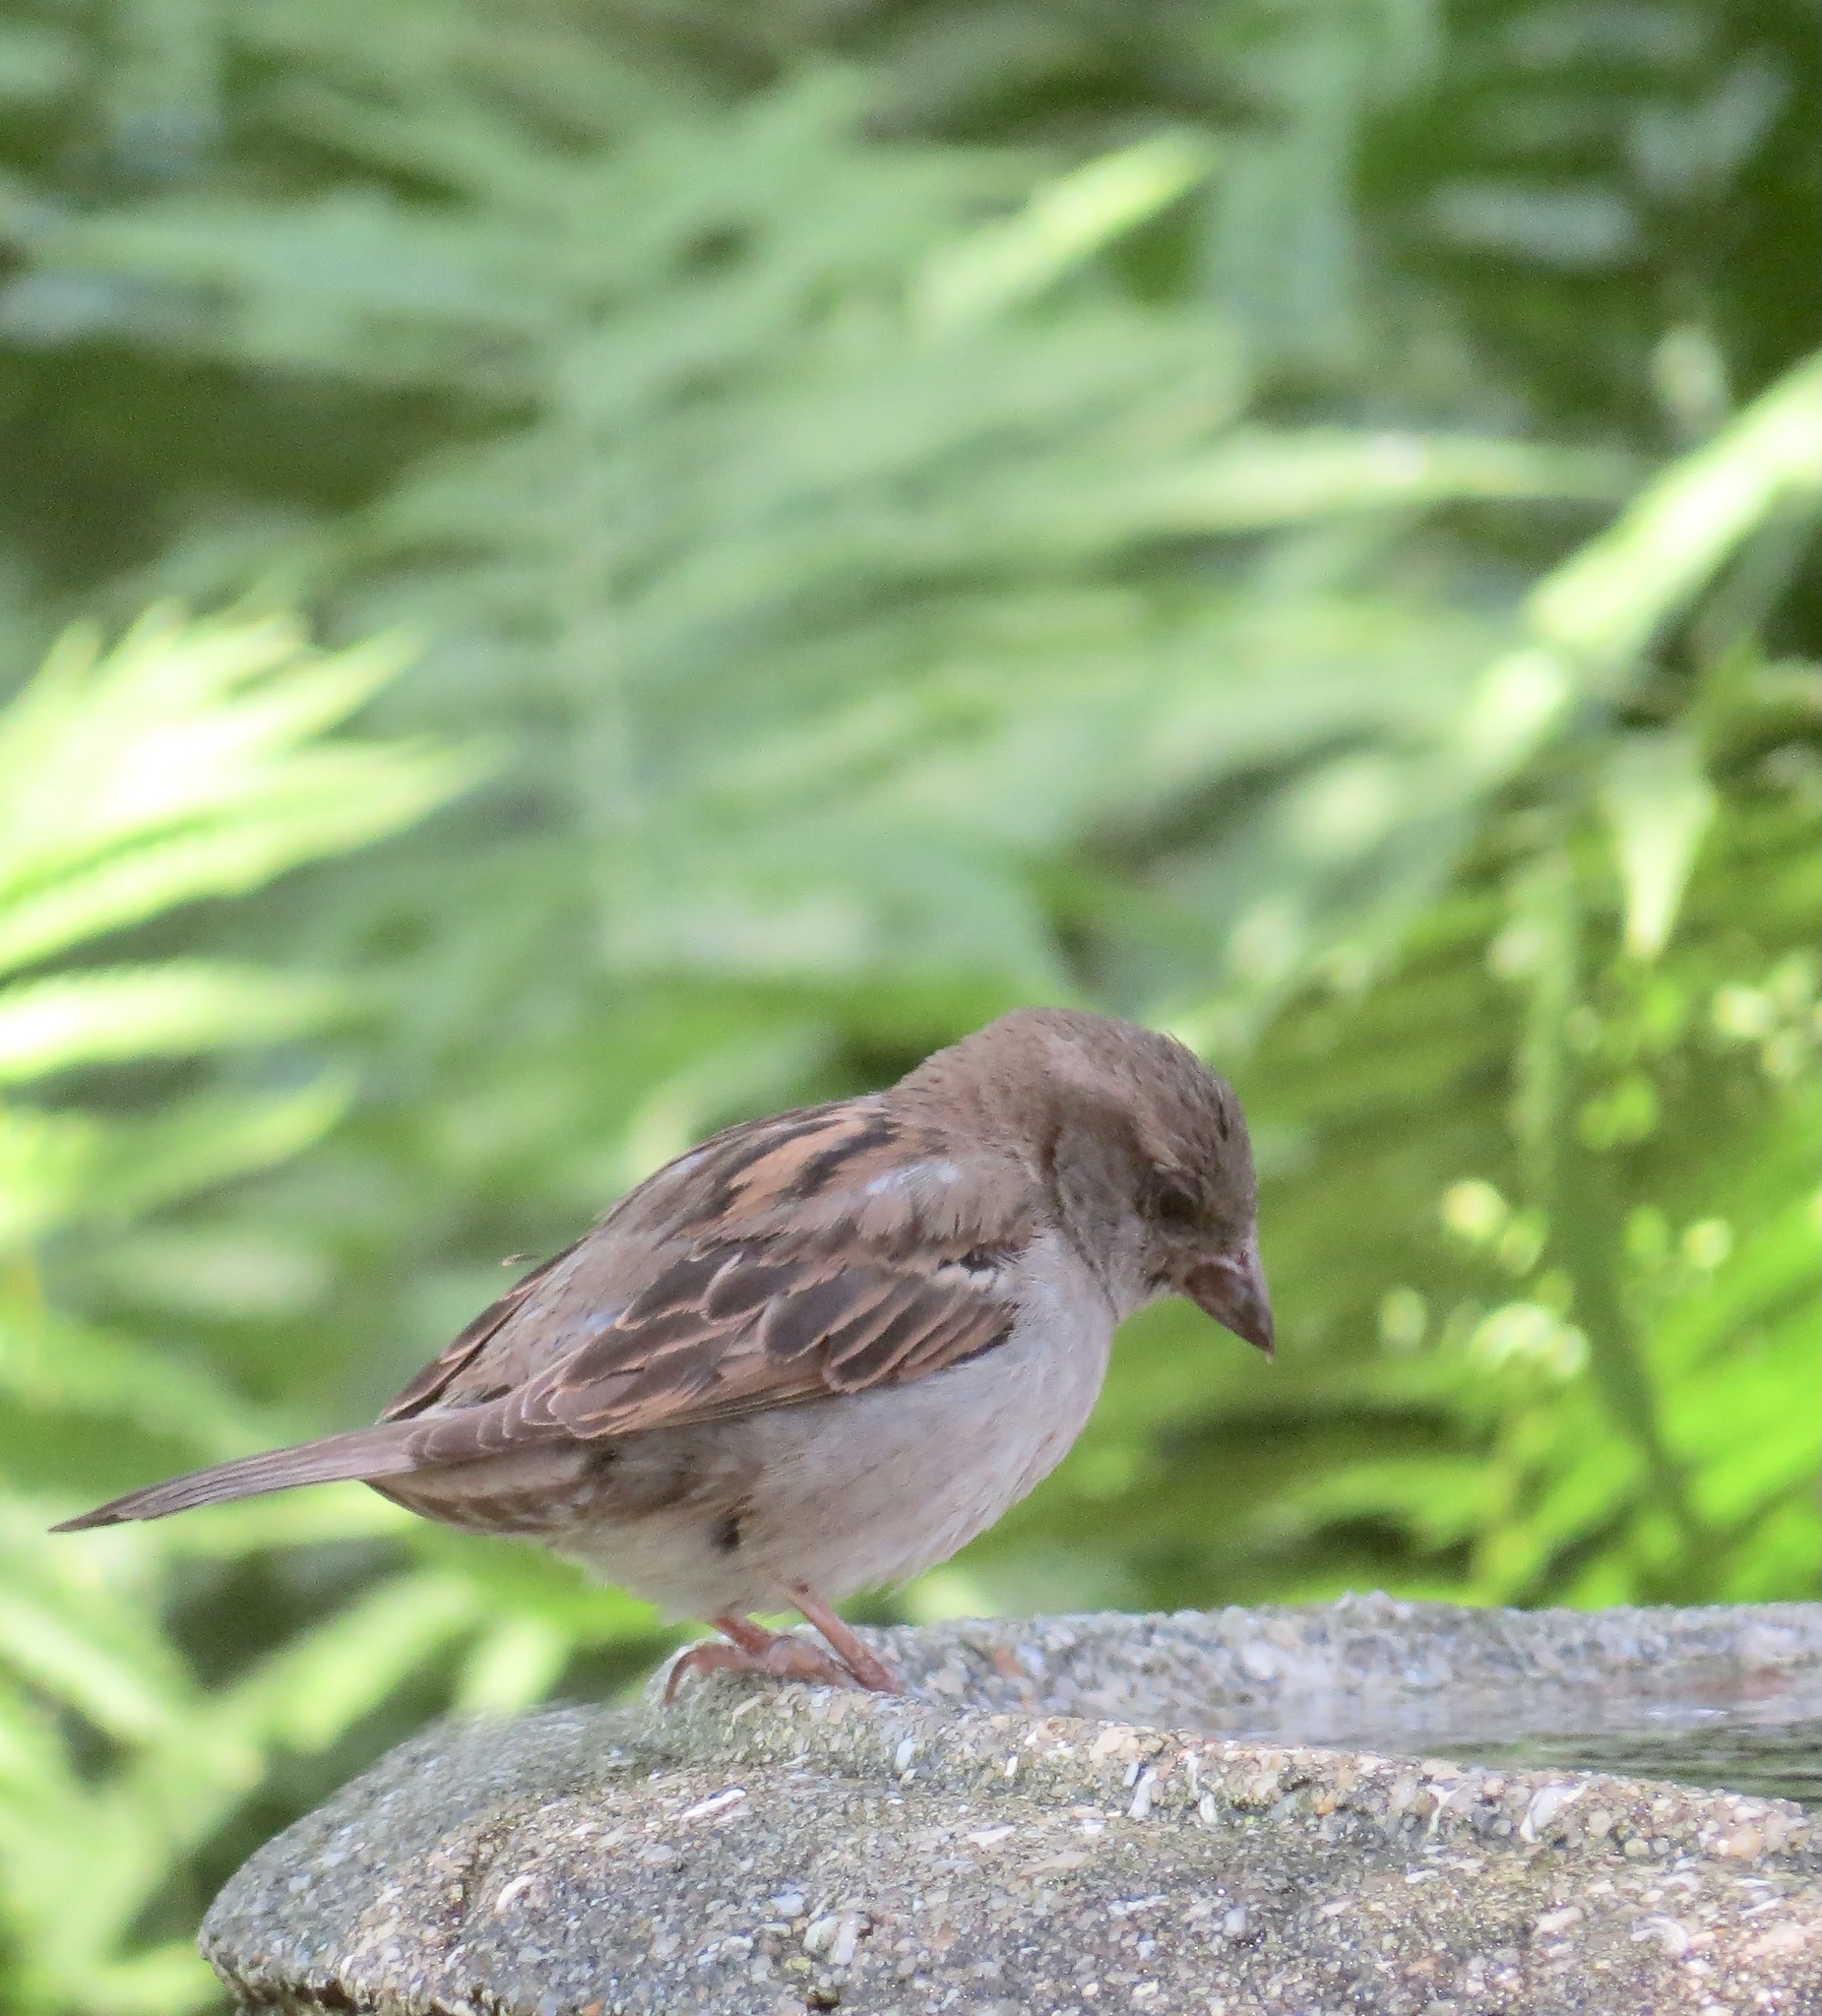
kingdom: Animalia
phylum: Chordata
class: Aves
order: Passeriformes
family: Passeridae
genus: Passer
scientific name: Passer domesticus
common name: House sparrow
